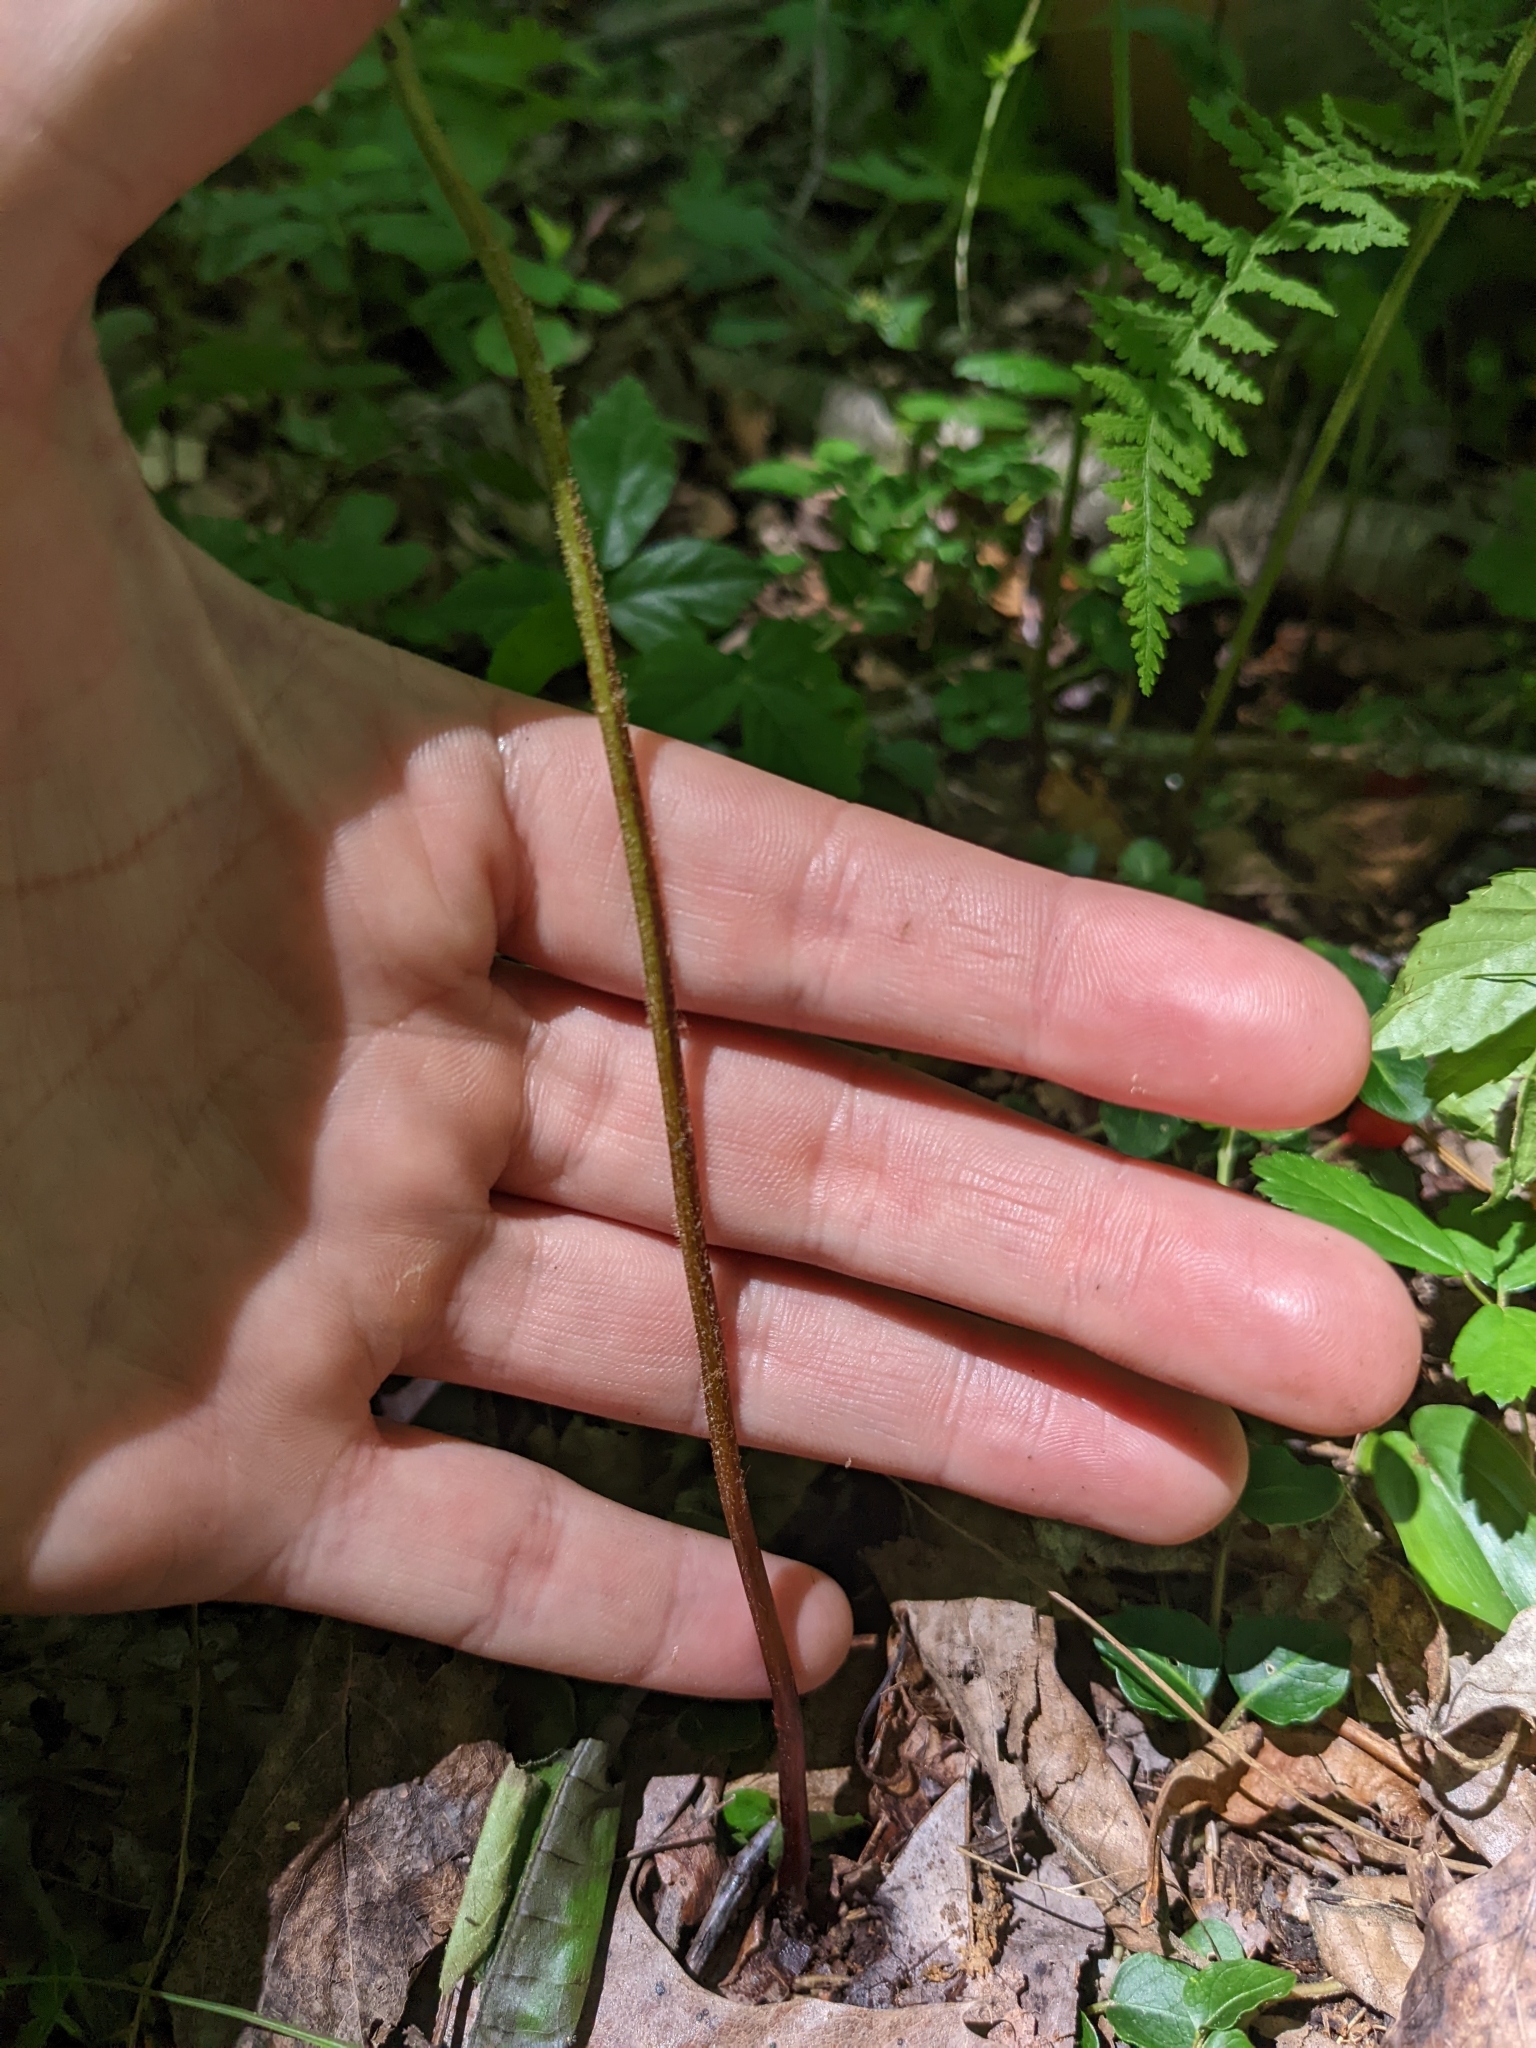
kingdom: Plantae
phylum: Tracheophyta
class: Polypodiopsida
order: Polypodiales
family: Dennstaedtiaceae
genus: Sitobolium
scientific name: Sitobolium punctilobum
